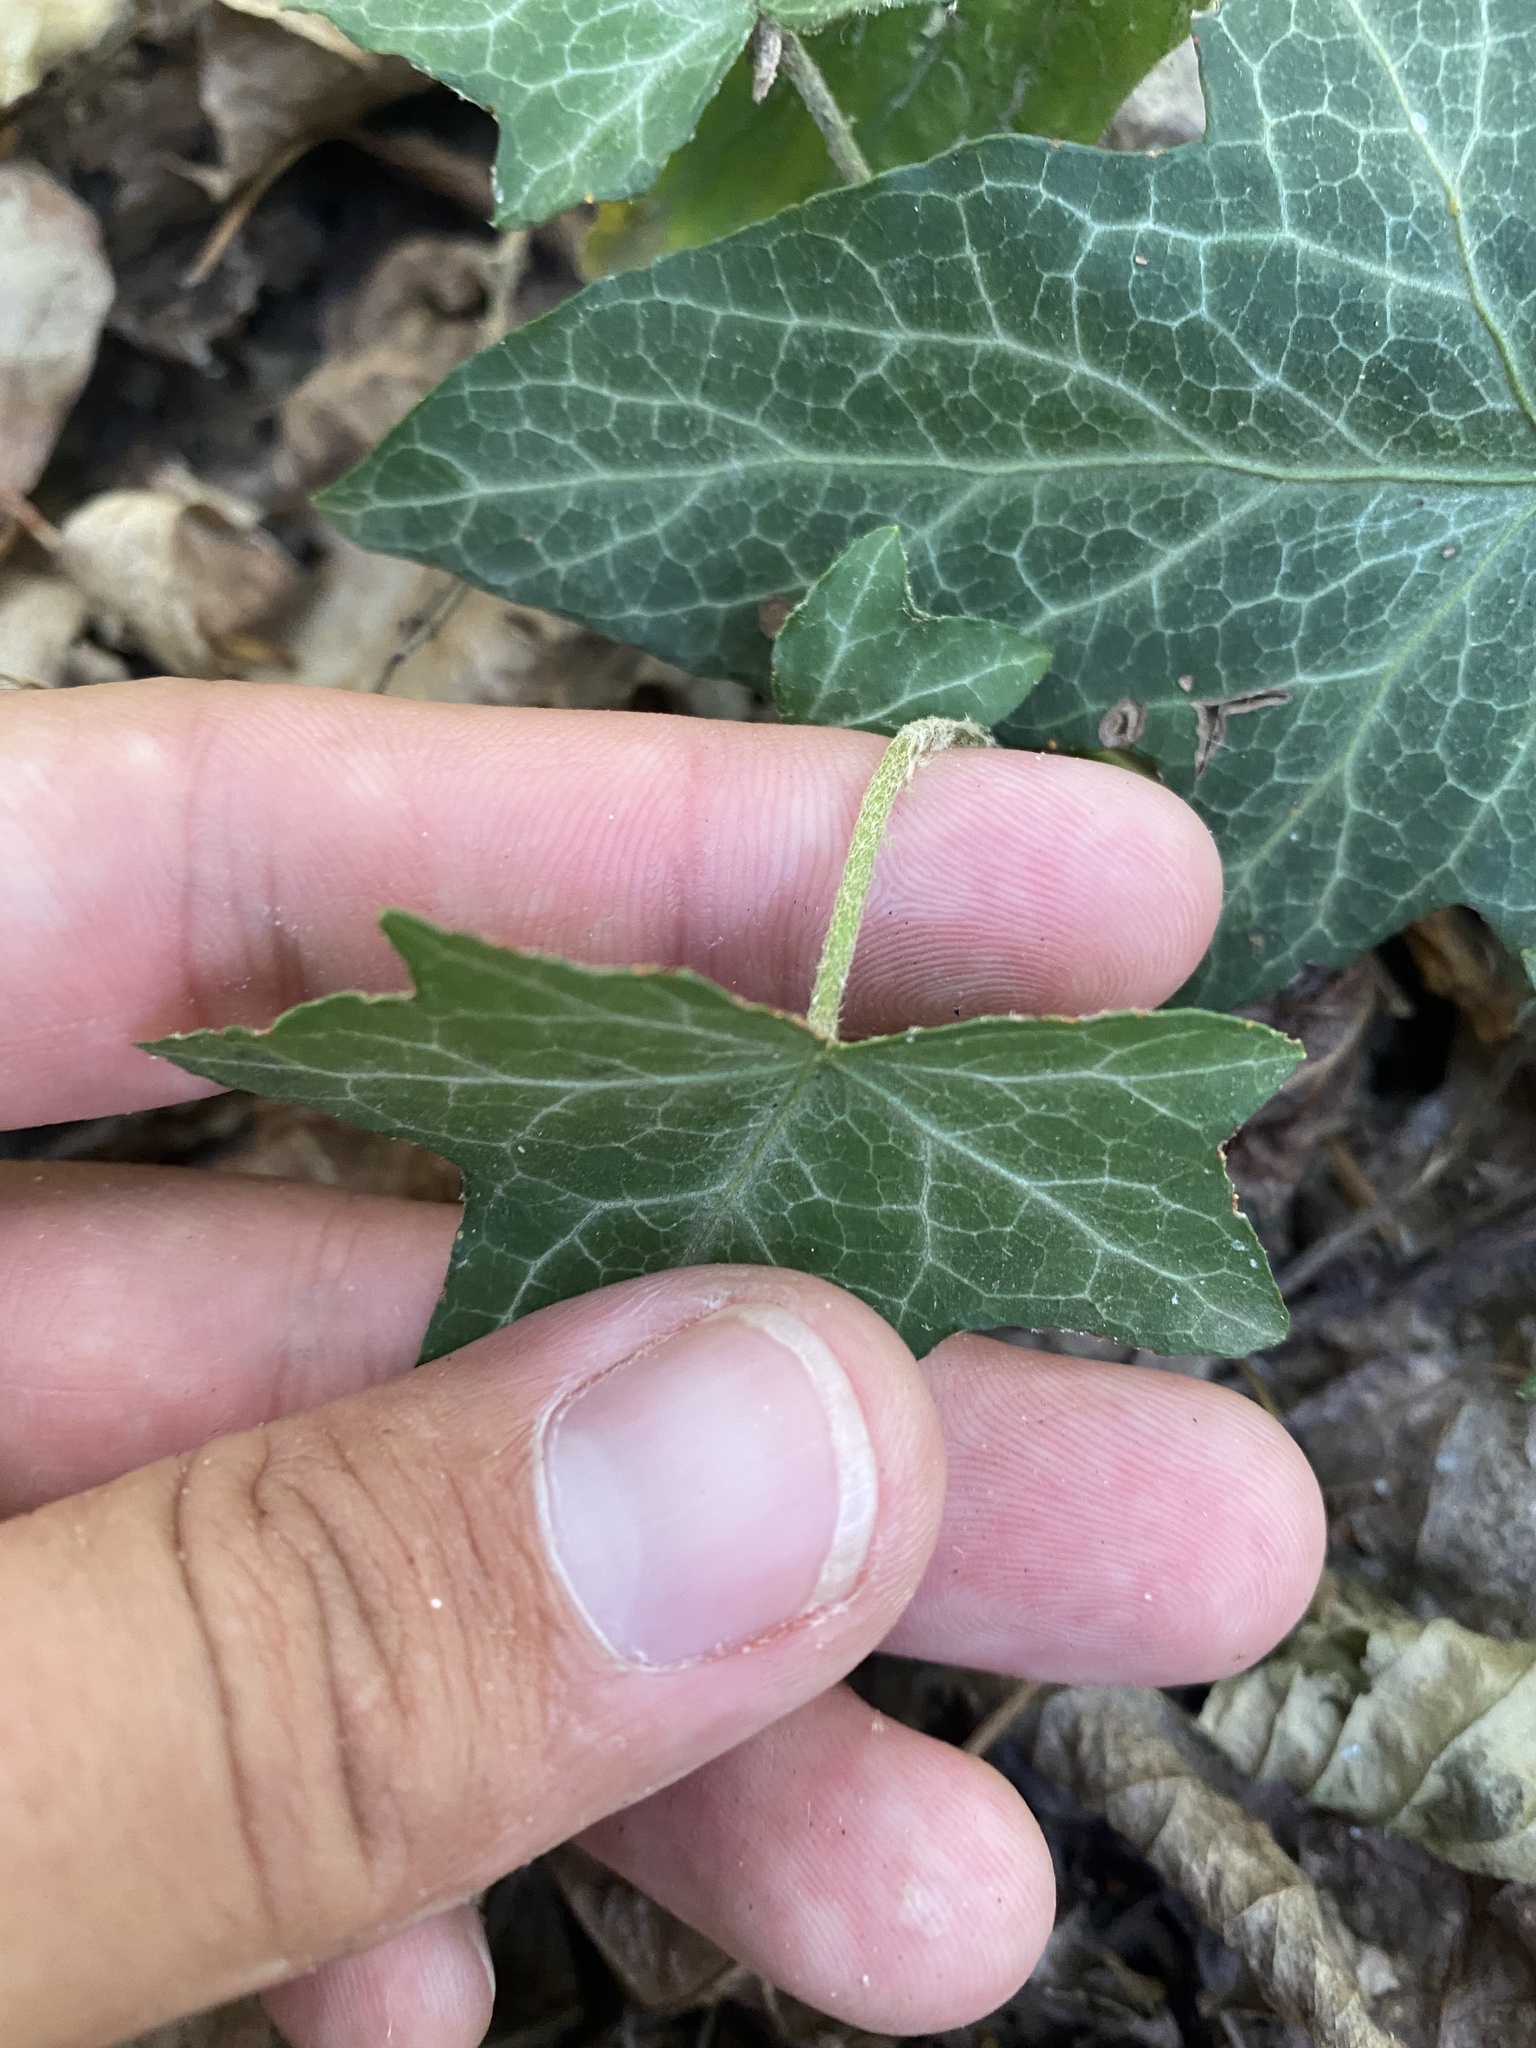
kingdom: Plantae
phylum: Tracheophyta
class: Magnoliopsida
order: Apiales
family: Araliaceae
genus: Hedera
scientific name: Hedera helix
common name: Ivy
